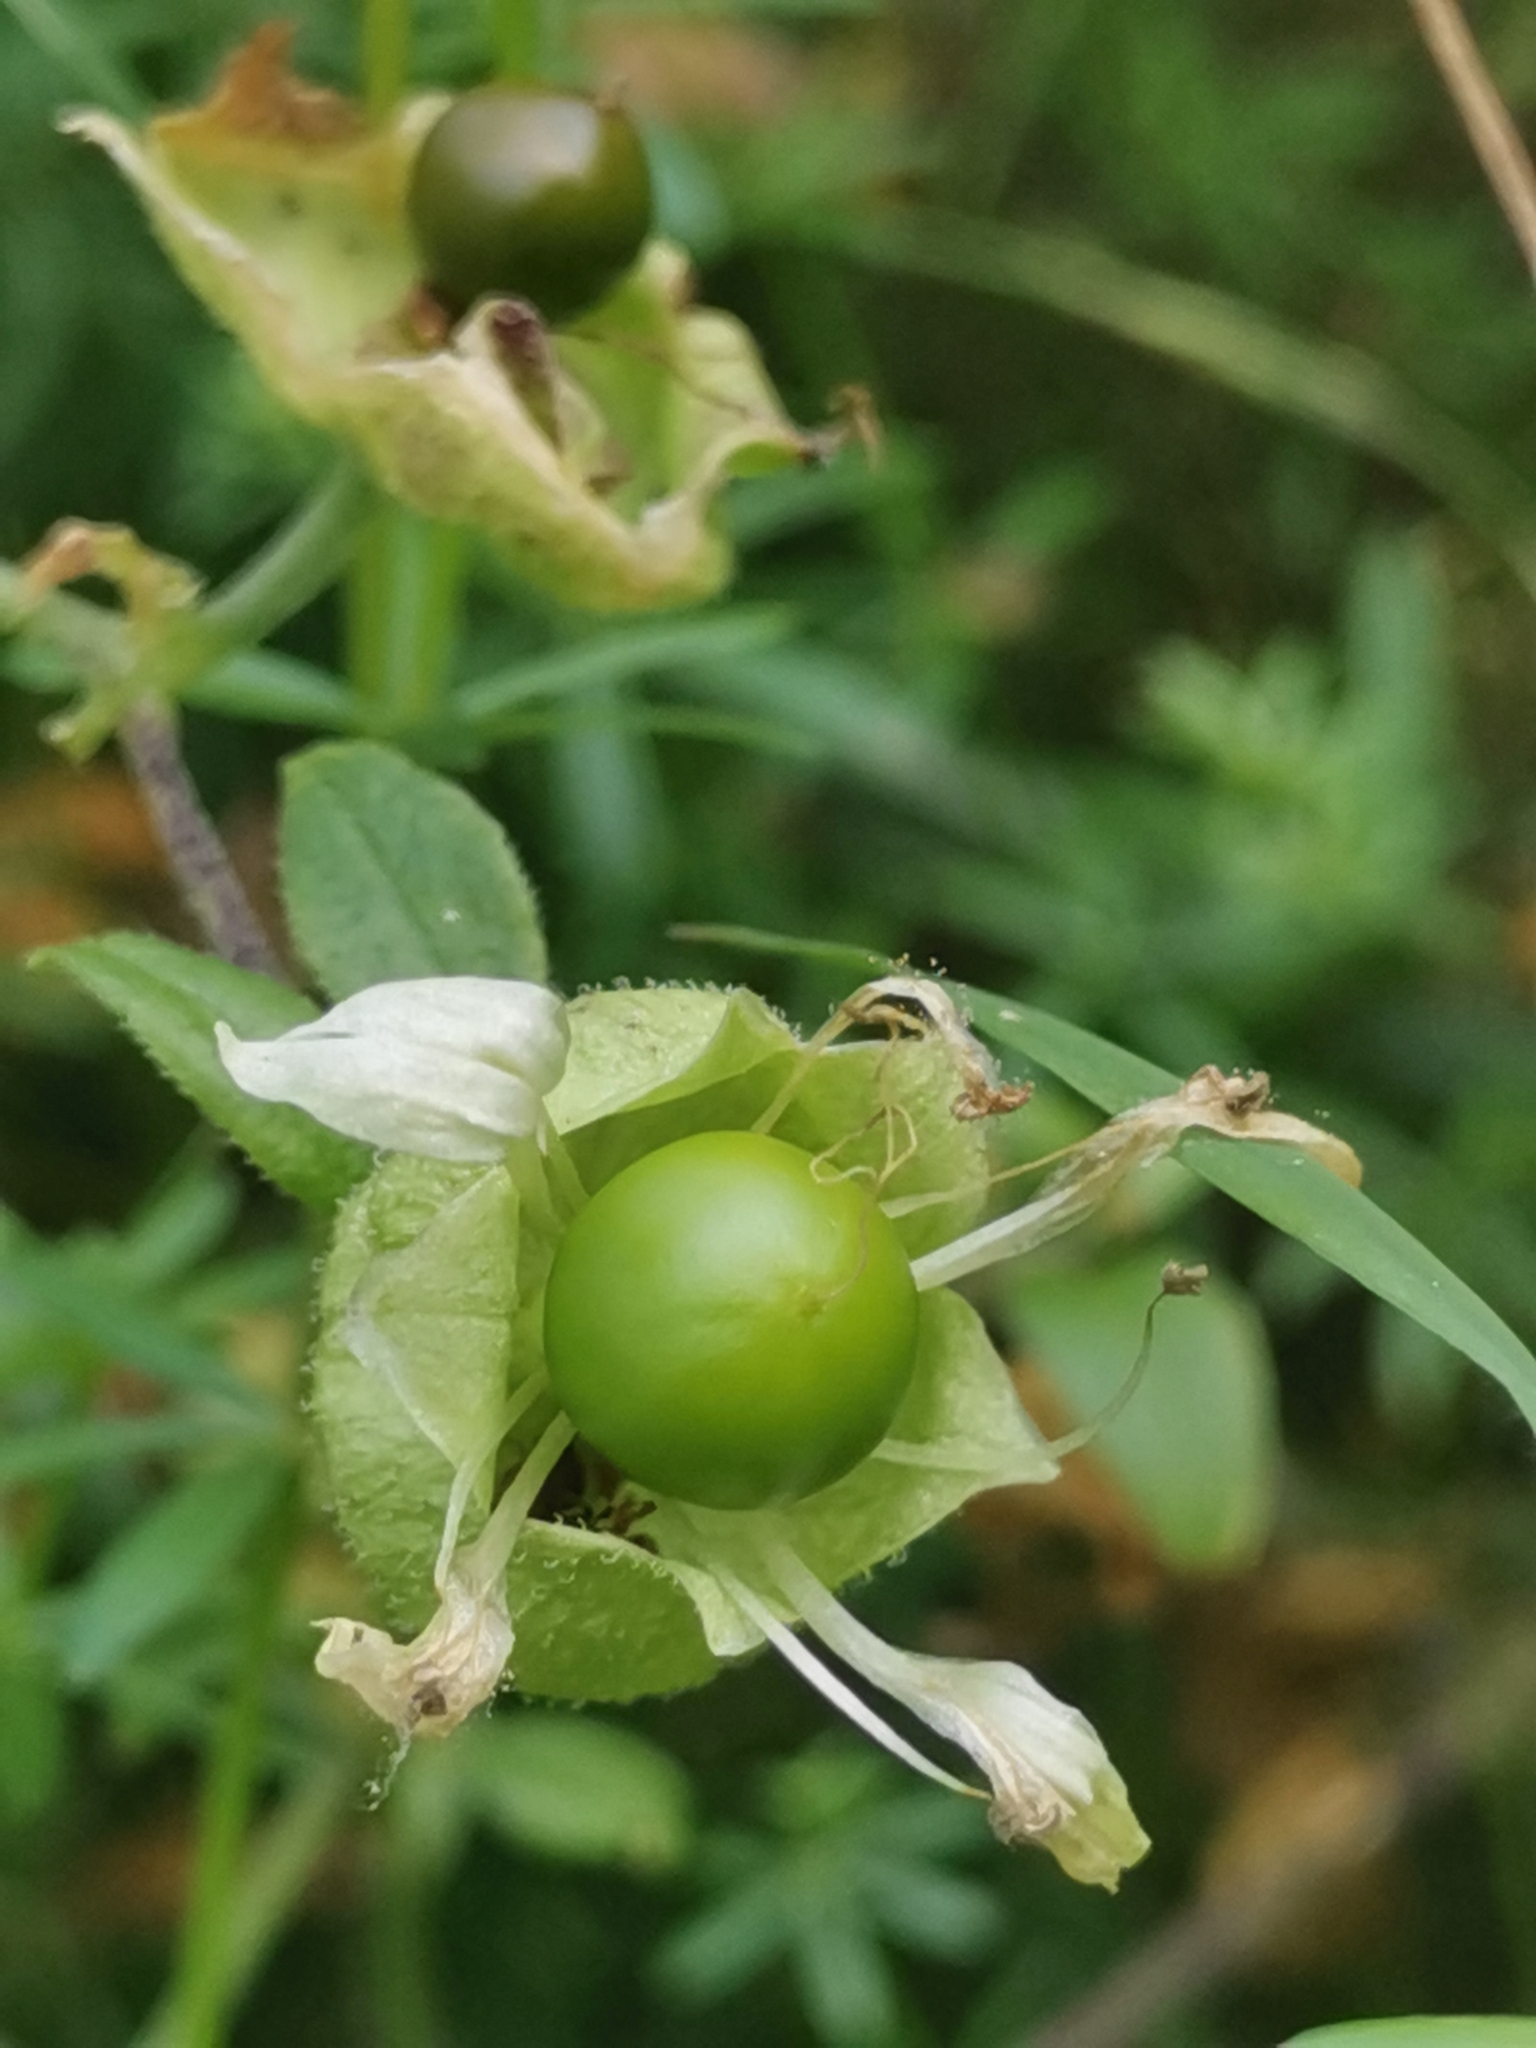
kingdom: Plantae
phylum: Tracheophyta
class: Magnoliopsida
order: Caryophyllales
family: Caryophyllaceae
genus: Silene
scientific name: Silene baccifera
